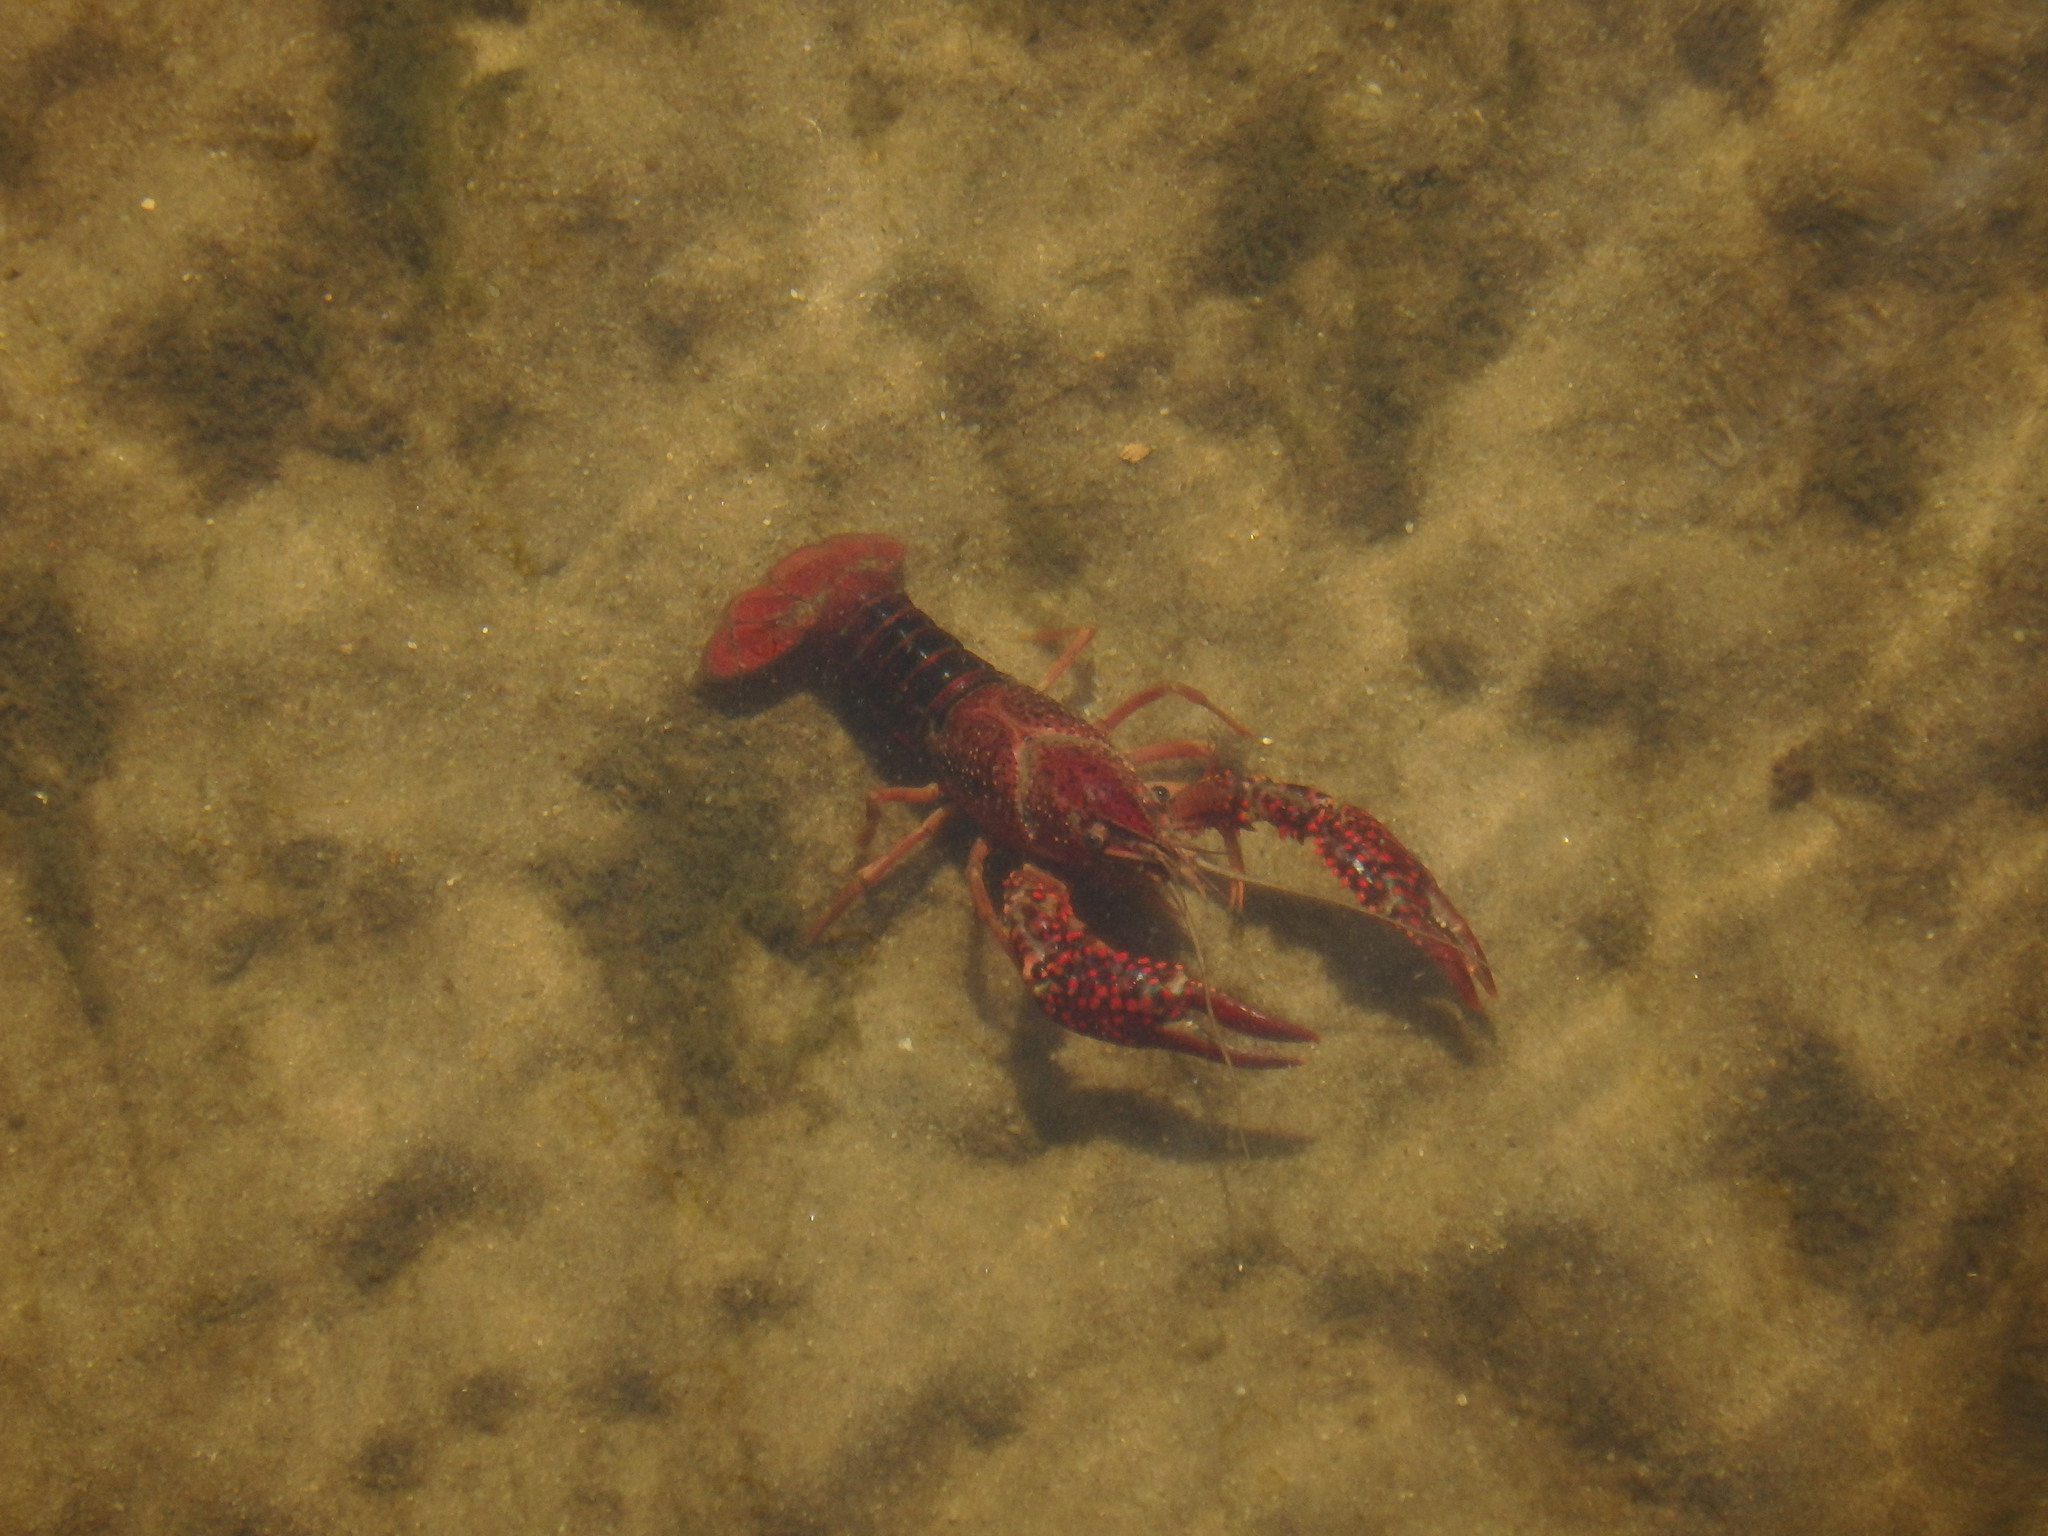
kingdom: Animalia
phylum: Arthropoda
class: Malacostraca
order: Decapoda
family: Cambaridae
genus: Procambarus
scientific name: Procambarus clarkii
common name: Red swamp crayfish
